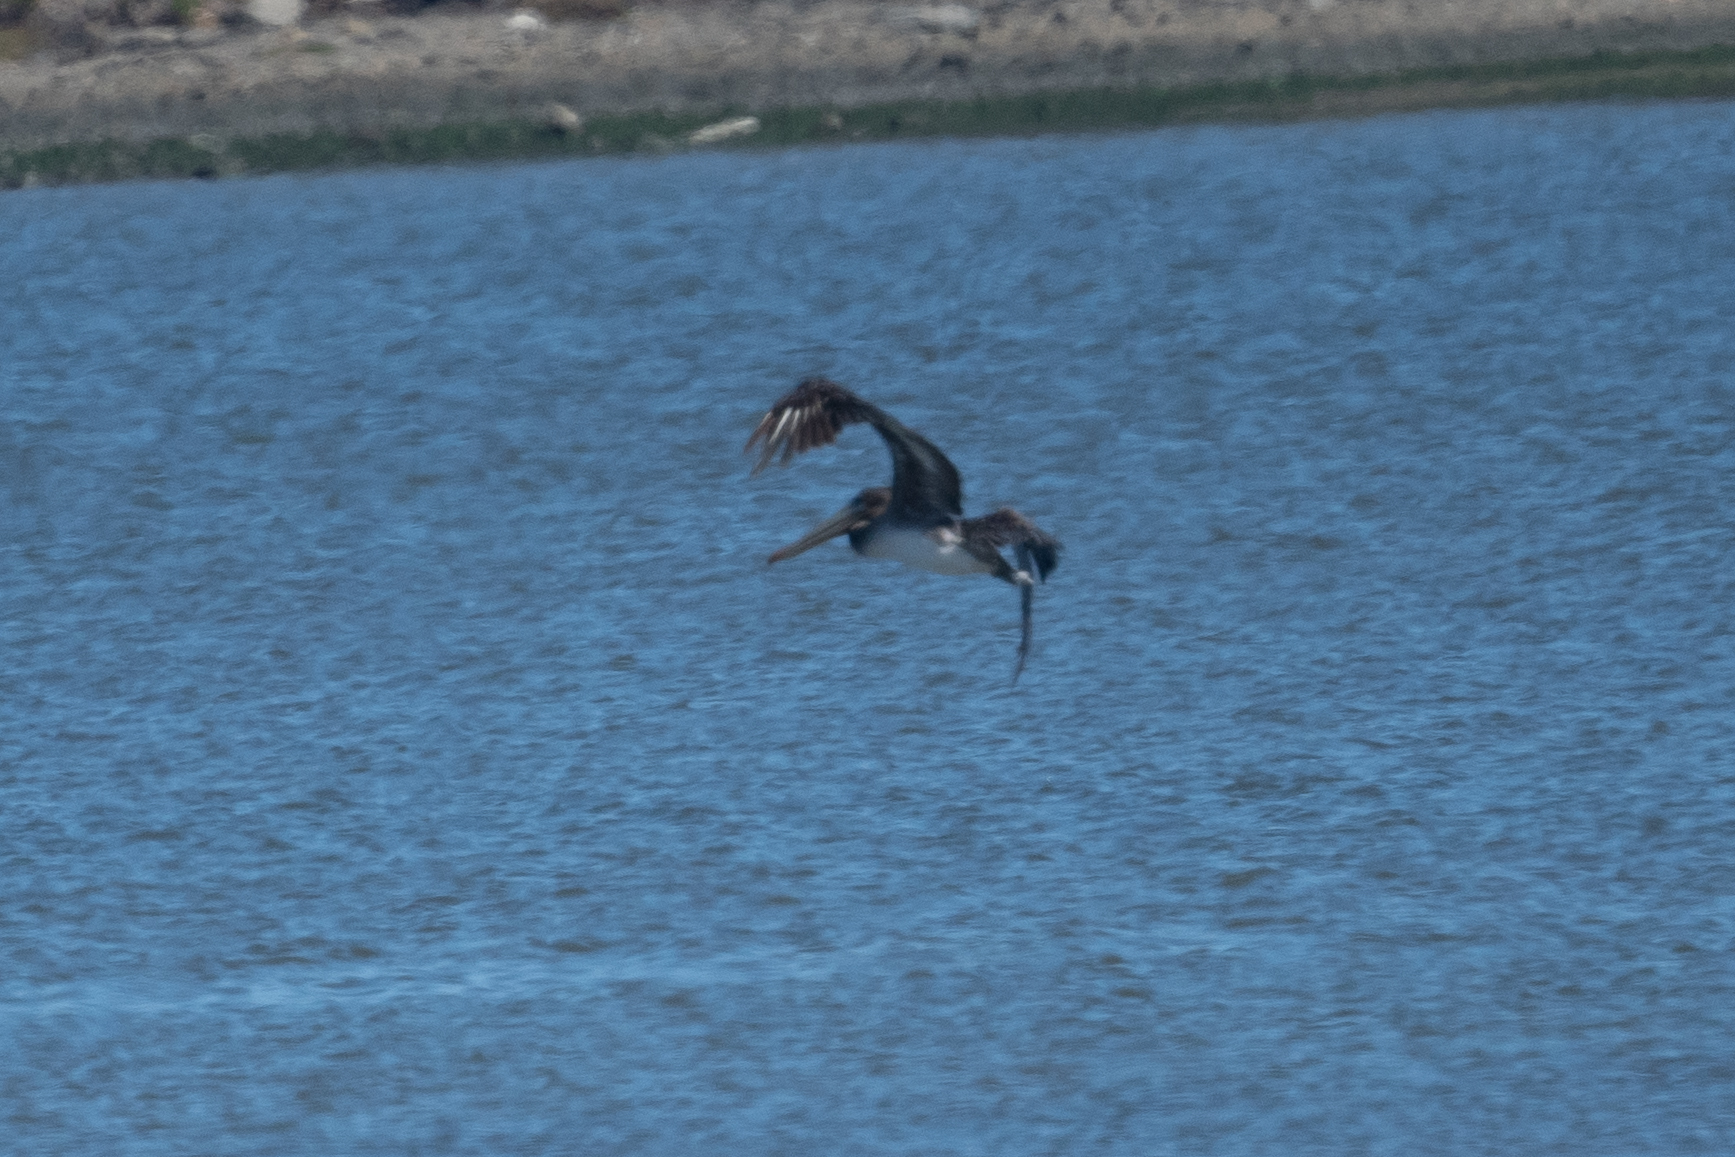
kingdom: Animalia
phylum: Chordata
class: Aves
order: Pelecaniformes
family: Pelecanidae
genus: Pelecanus
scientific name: Pelecanus occidentalis
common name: Brown pelican
